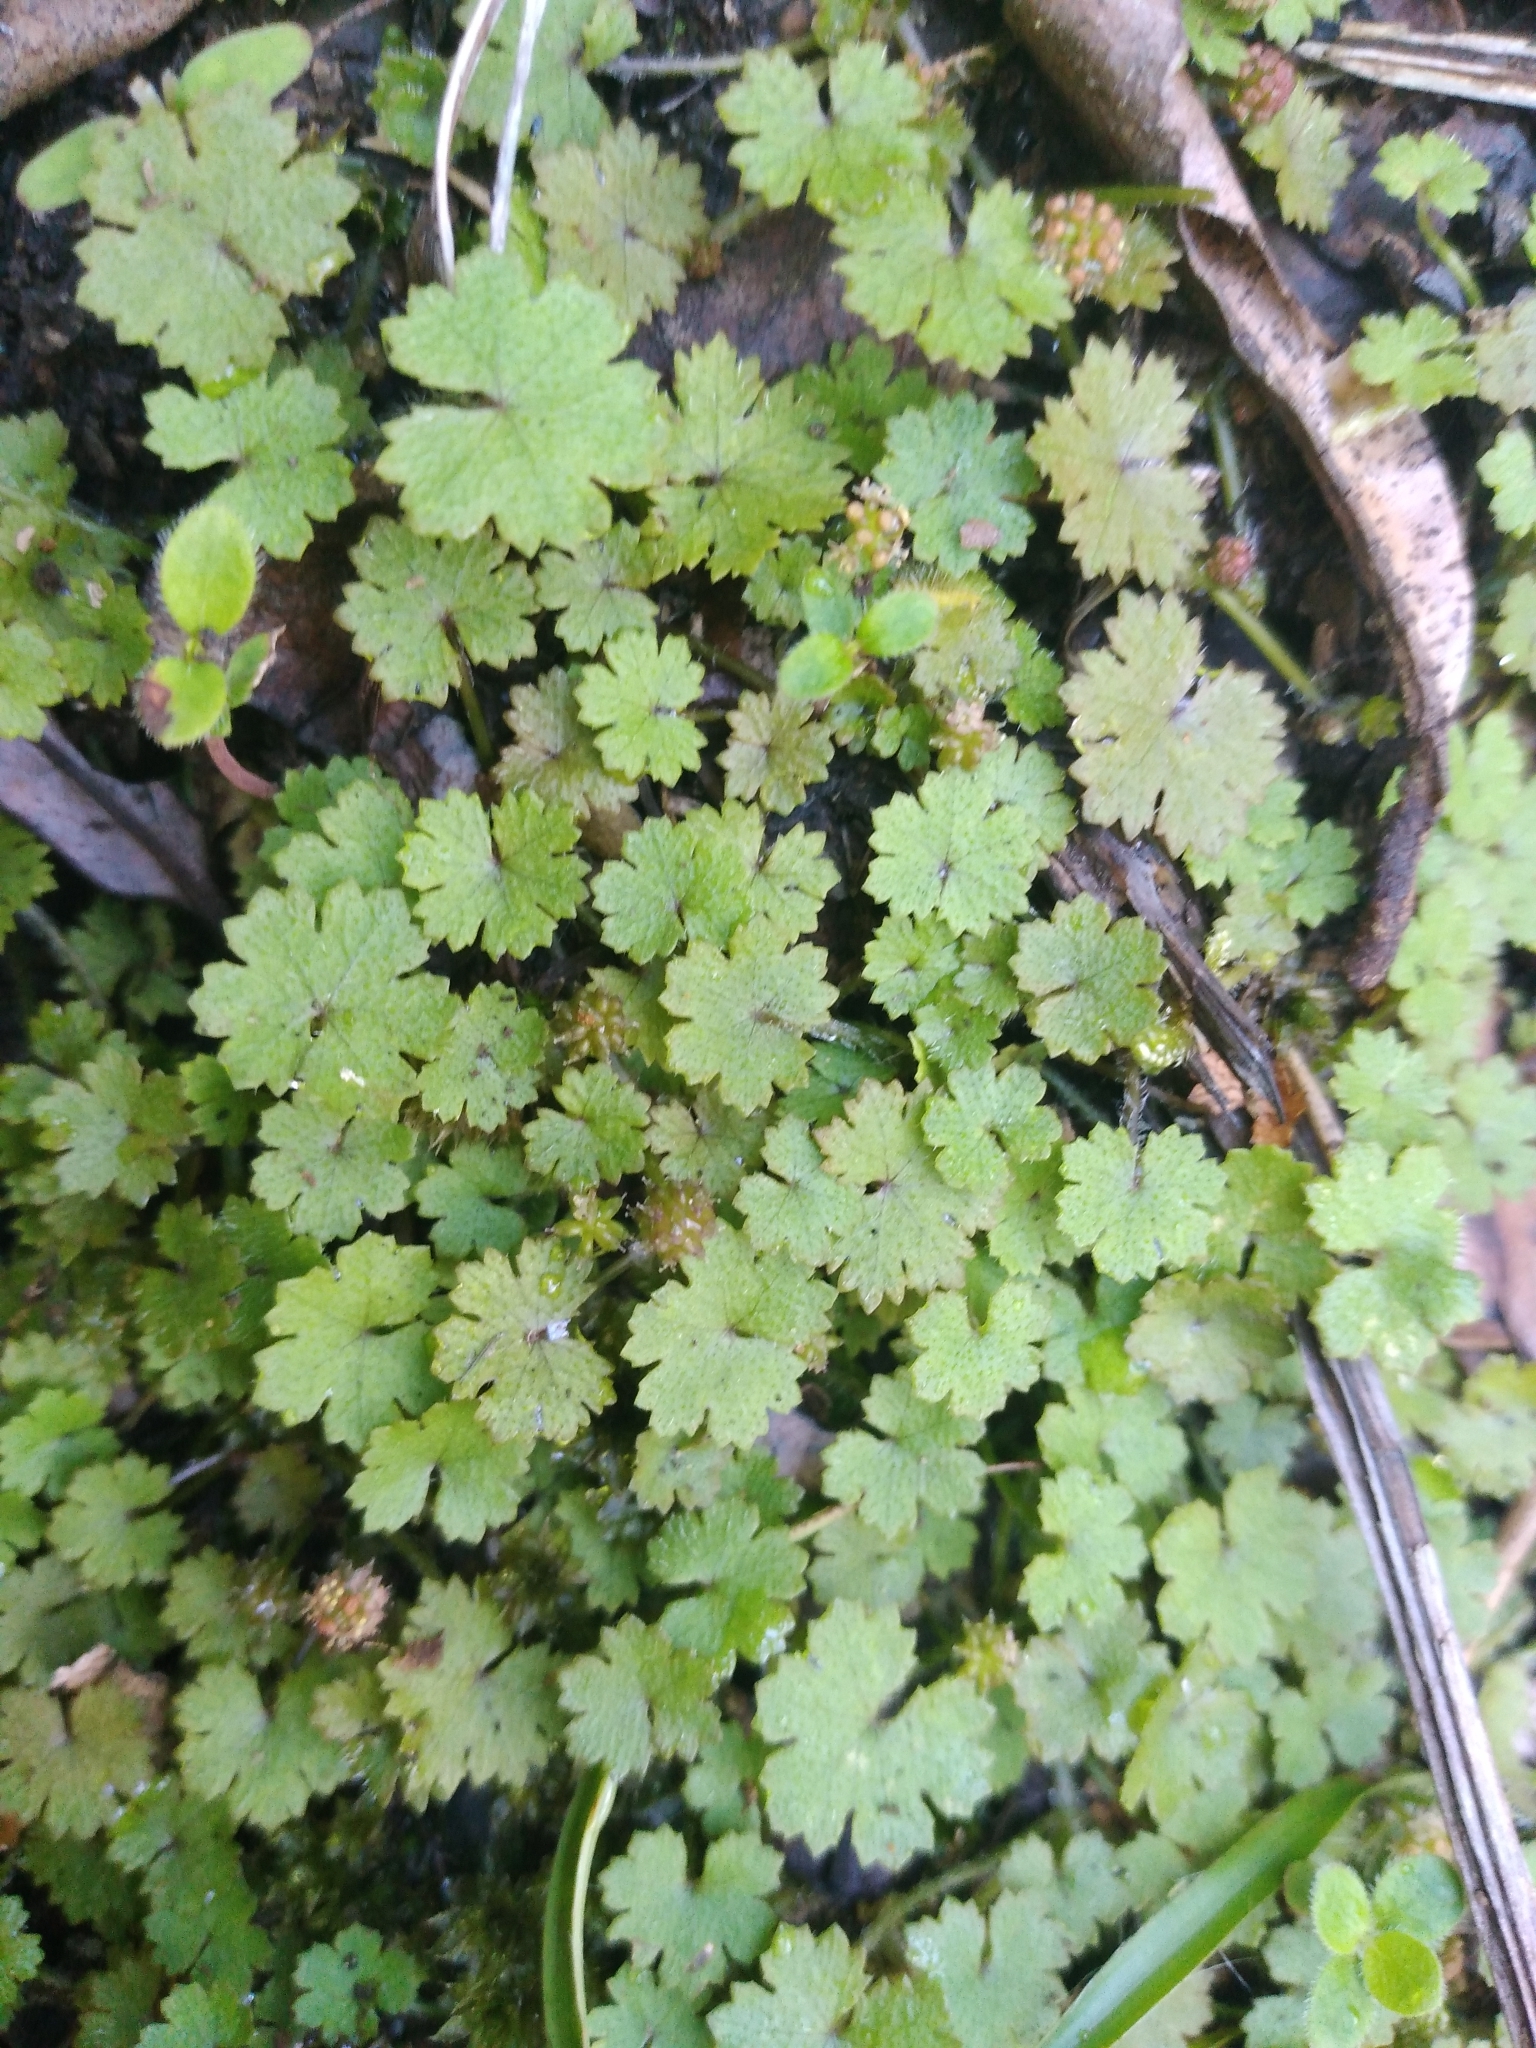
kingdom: Plantae
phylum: Tracheophyta
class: Magnoliopsida
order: Apiales
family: Araliaceae
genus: Hydrocotyle
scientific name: Hydrocotyle microphylla
